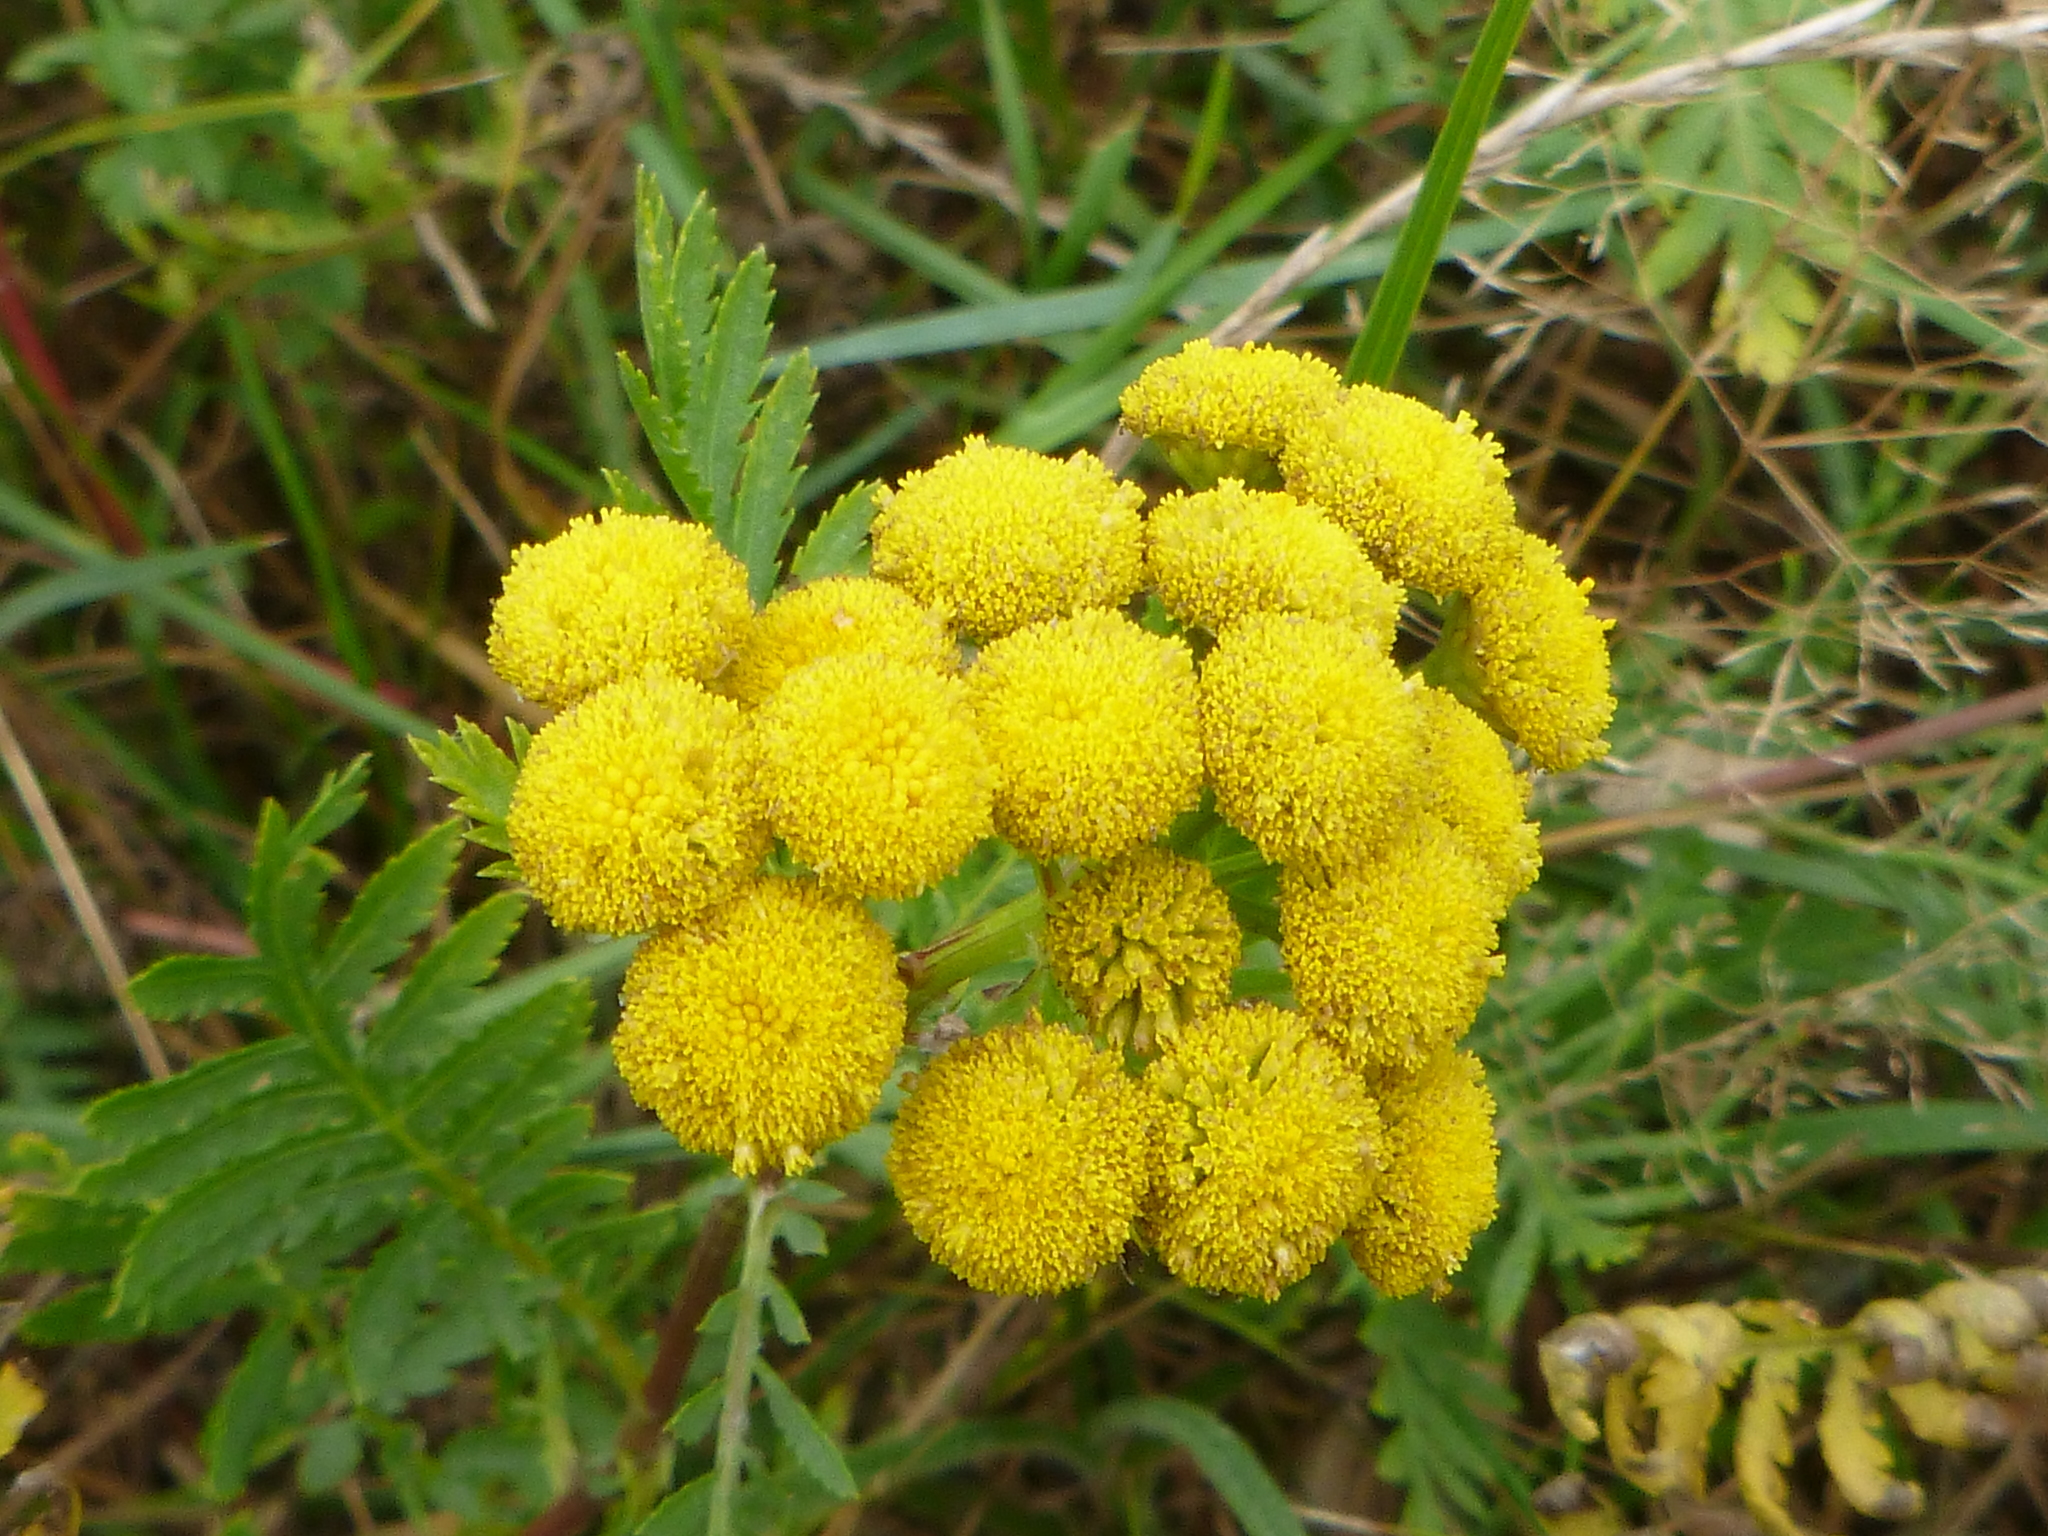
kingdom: Plantae
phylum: Tracheophyta
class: Magnoliopsida
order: Asterales
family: Asteraceae
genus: Tanacetum
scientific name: Tanacetum vulgare
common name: Common tansy
